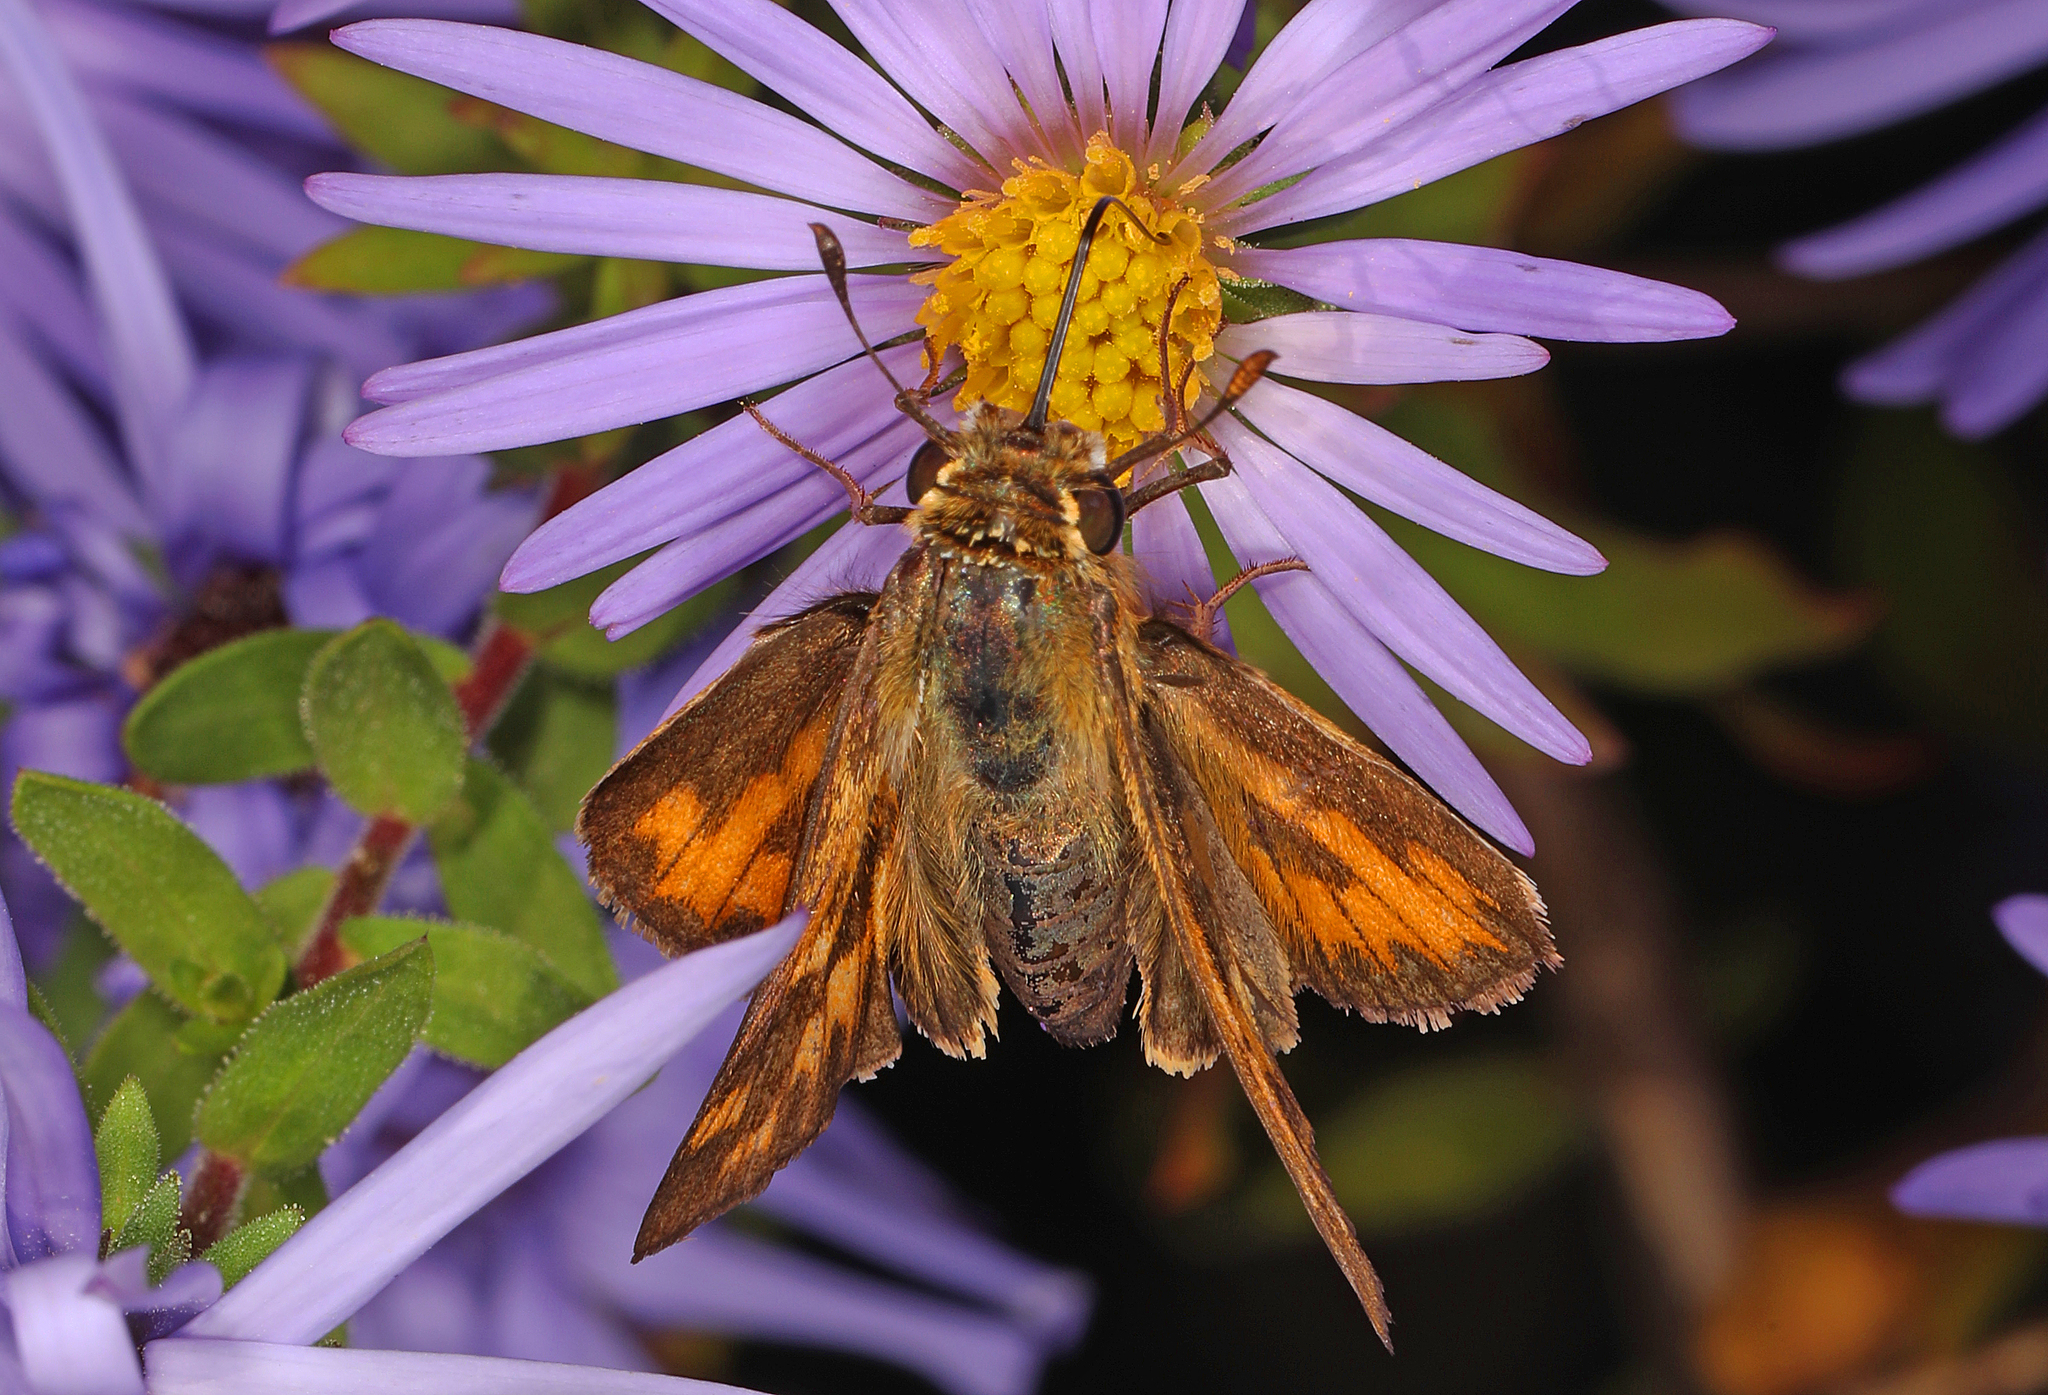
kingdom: Animalia
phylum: Arthropoda
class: Insecta
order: Lepidoptera
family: Hesperiidae
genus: Hylephila
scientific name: Hylephila phyleus
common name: Fiery skipper
